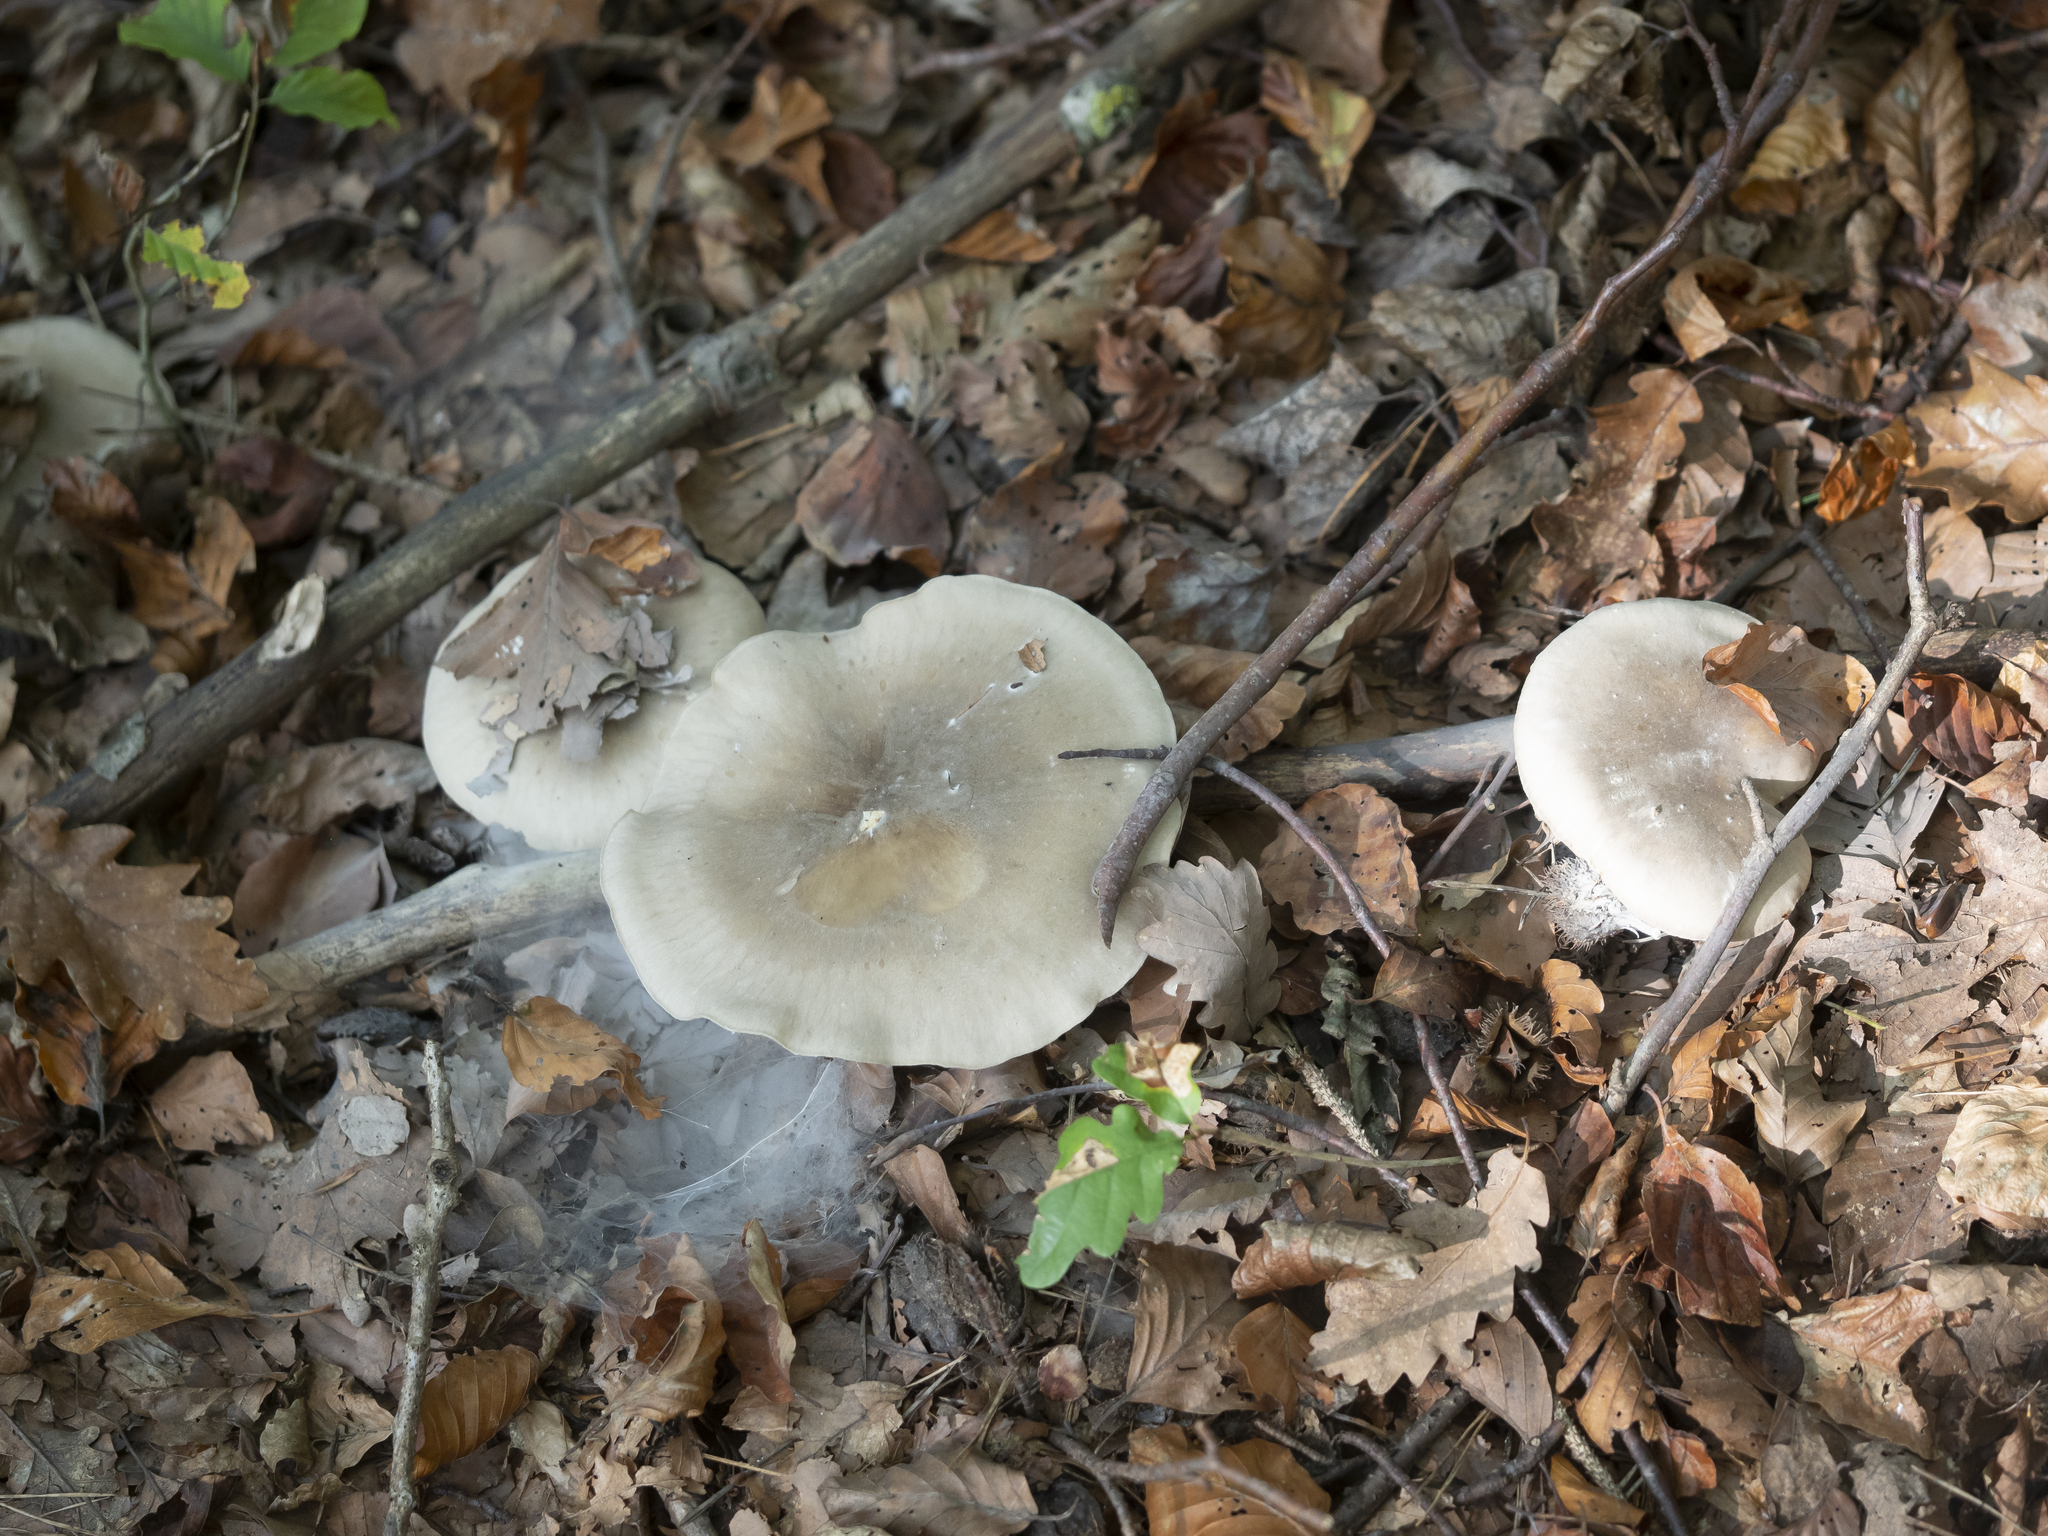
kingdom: Fungi
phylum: Basidiomycota
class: Agaricomycetes
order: Agaricales
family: Tricholomataceae
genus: Clitocybe
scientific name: Clitocybe nebularis
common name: Clouded agaric
